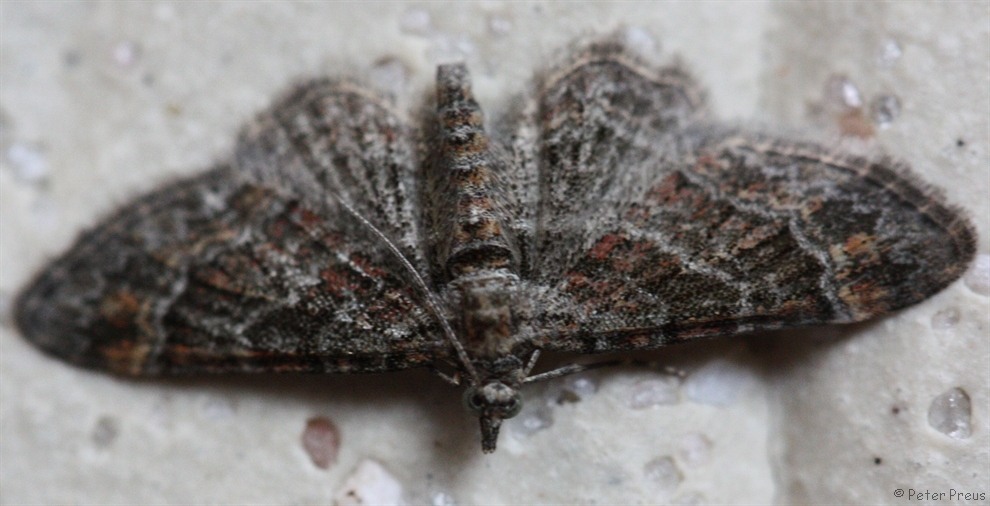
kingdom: Animalia
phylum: Arthropoda
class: Insecta
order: Lepidoptera
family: Geometridae
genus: Gymnoscelis
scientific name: Gymnoscelis rufifasciata
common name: Double-striped pug
